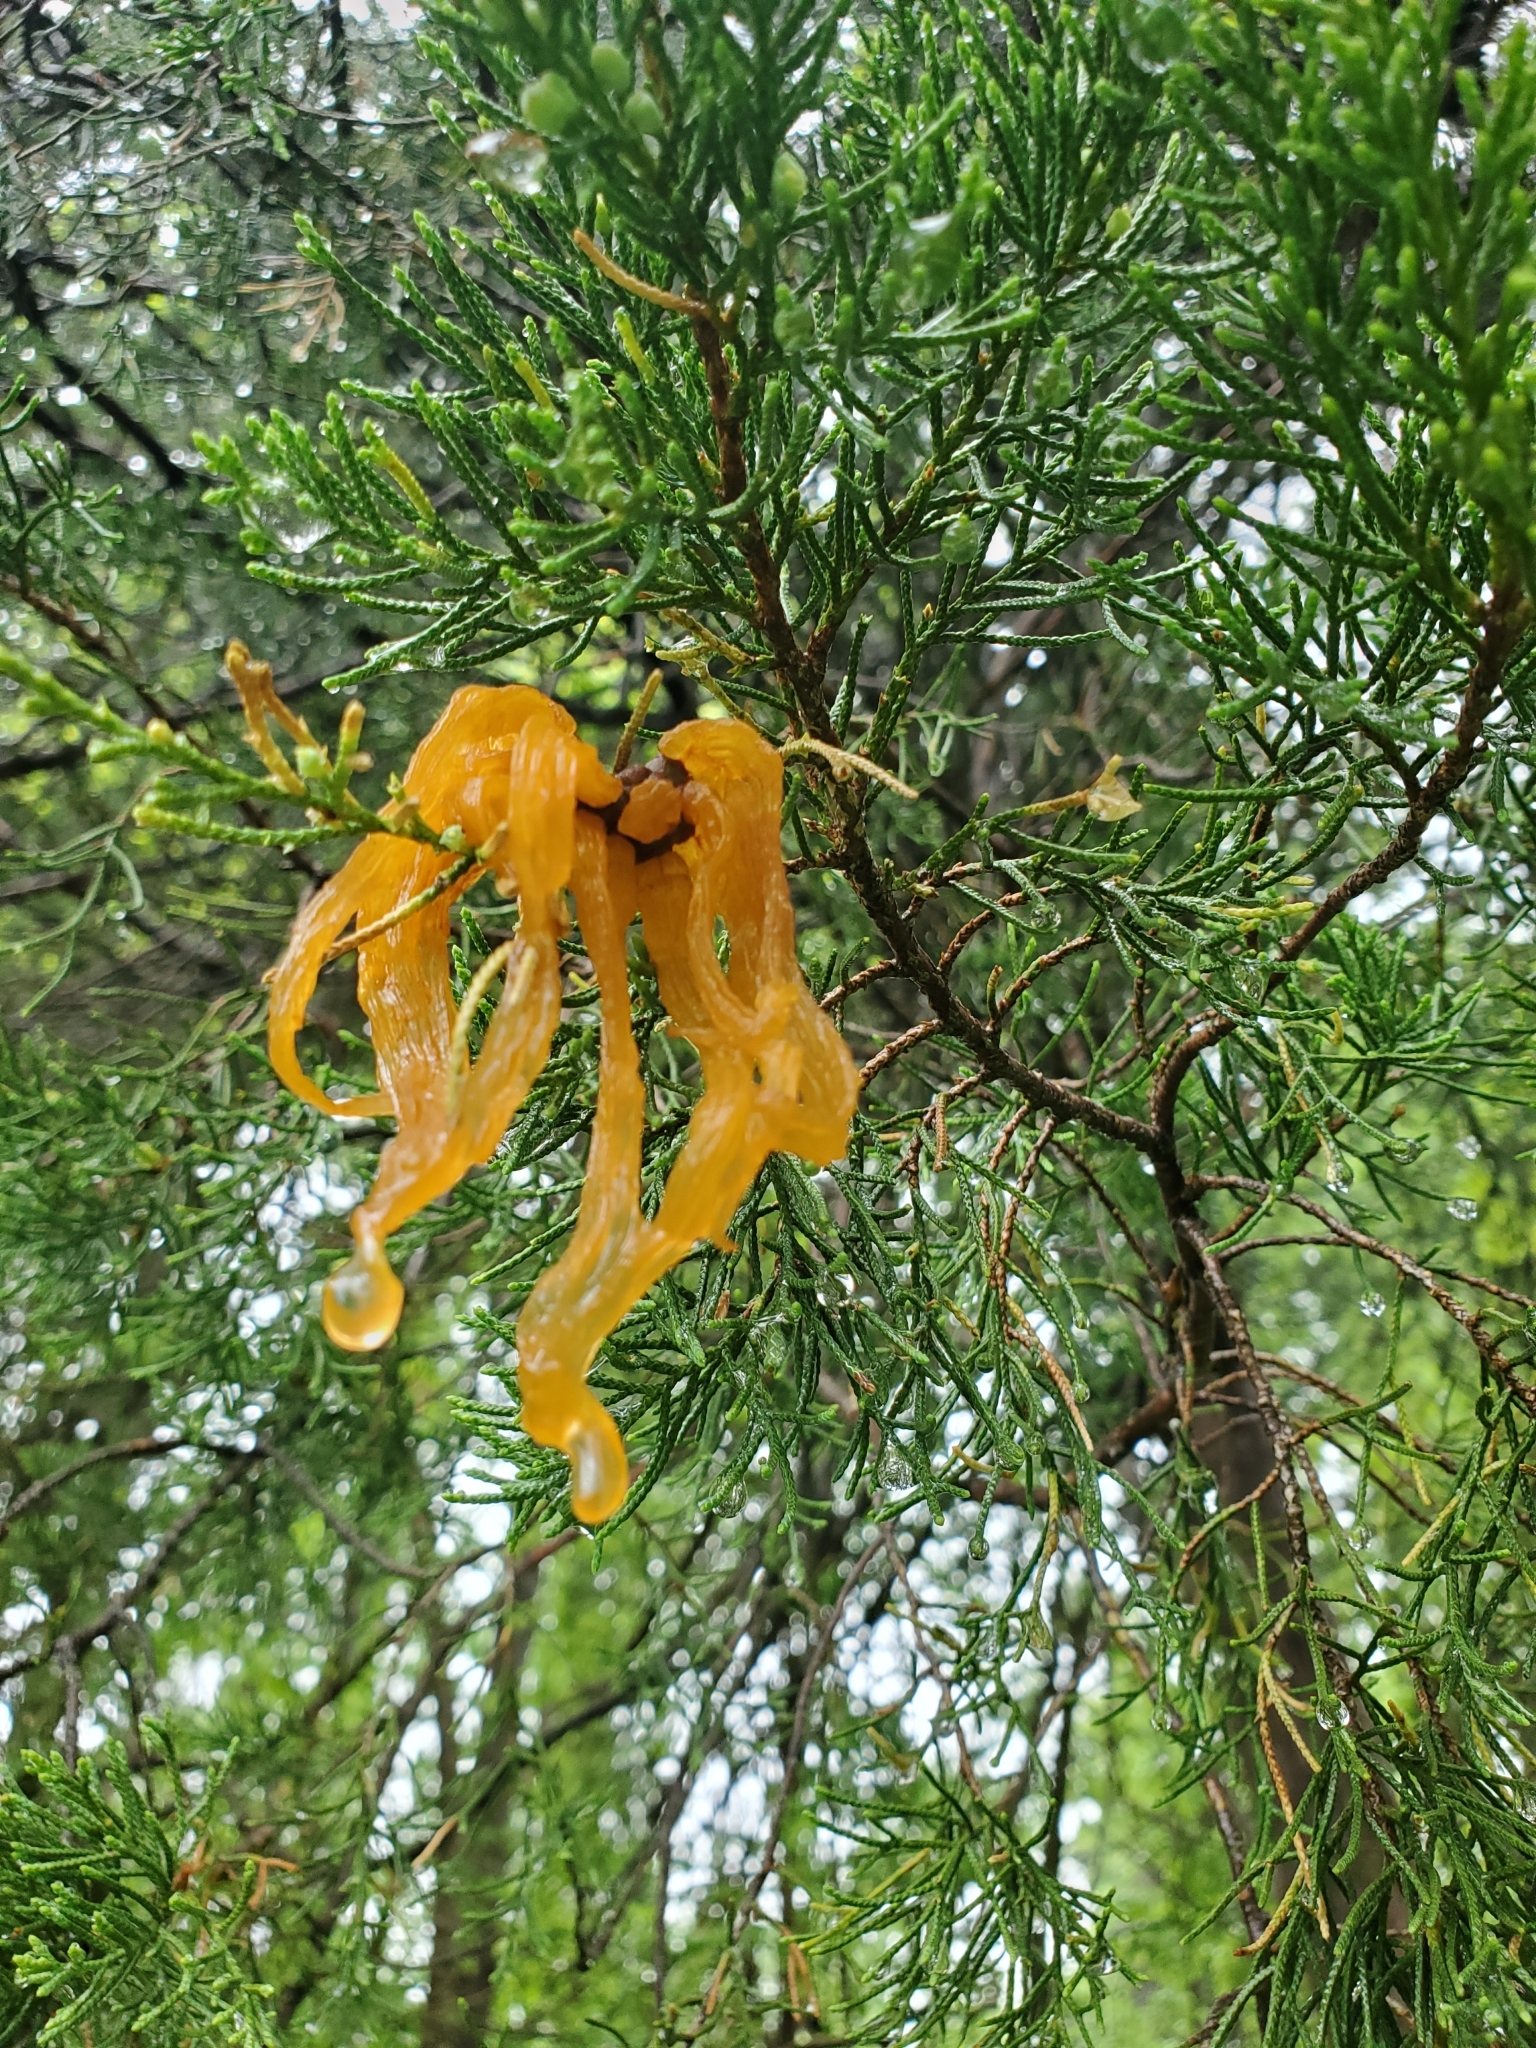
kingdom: Fungi
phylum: Basidiomycota
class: Pucciniomycetes
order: Pucciniales
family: Gymnosporangiaceae
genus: Gymnosporangium
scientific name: Gymnosporangium juniperi-virginianae
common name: Juniper-apple rust
